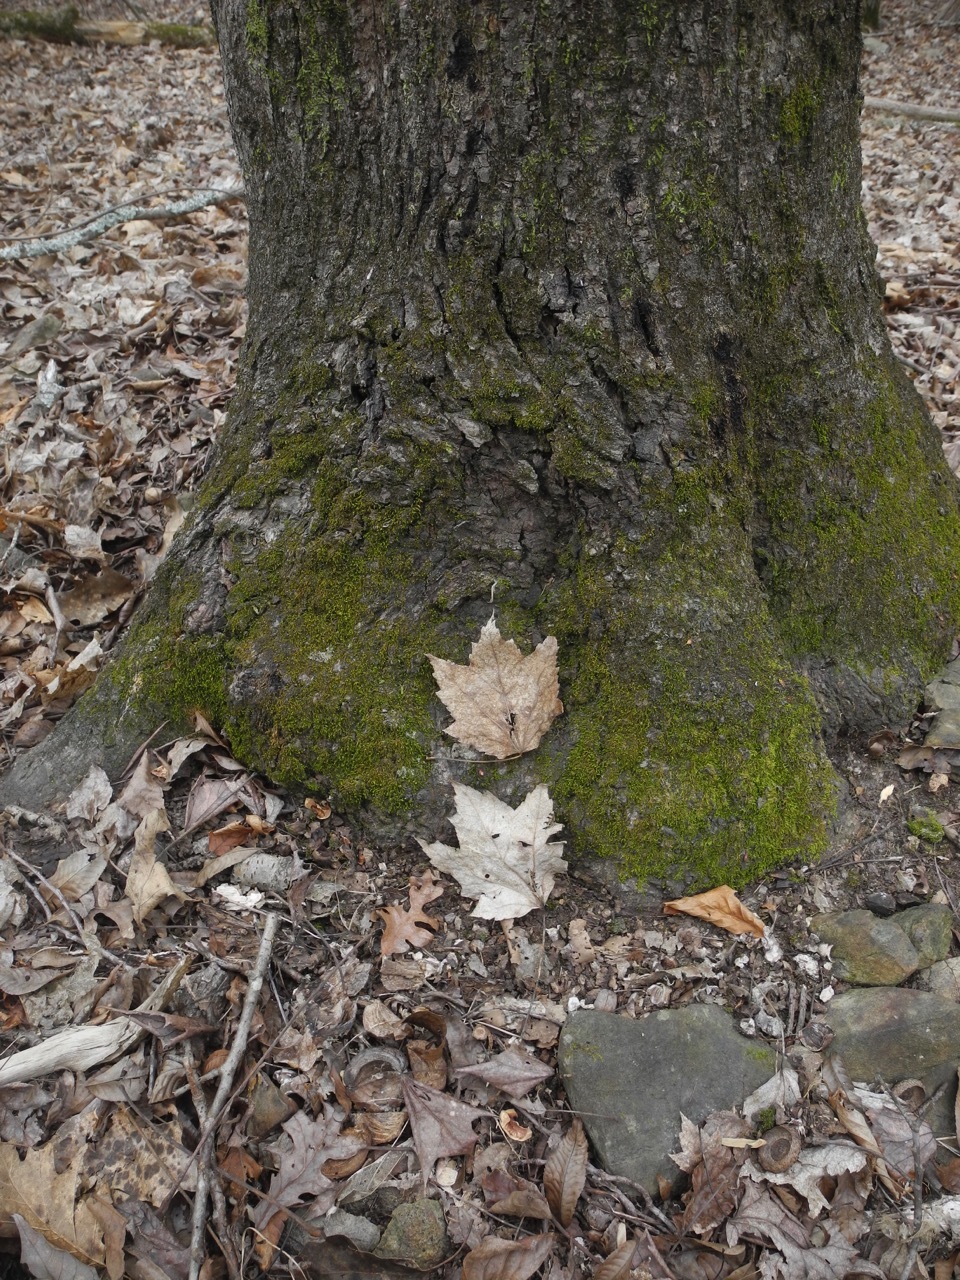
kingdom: Plantae
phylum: Tracheophyta
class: Magnoliopsida
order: Sapindales
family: Sapindaceae
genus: Acer
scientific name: Acer freemanii
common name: Freeman maple
